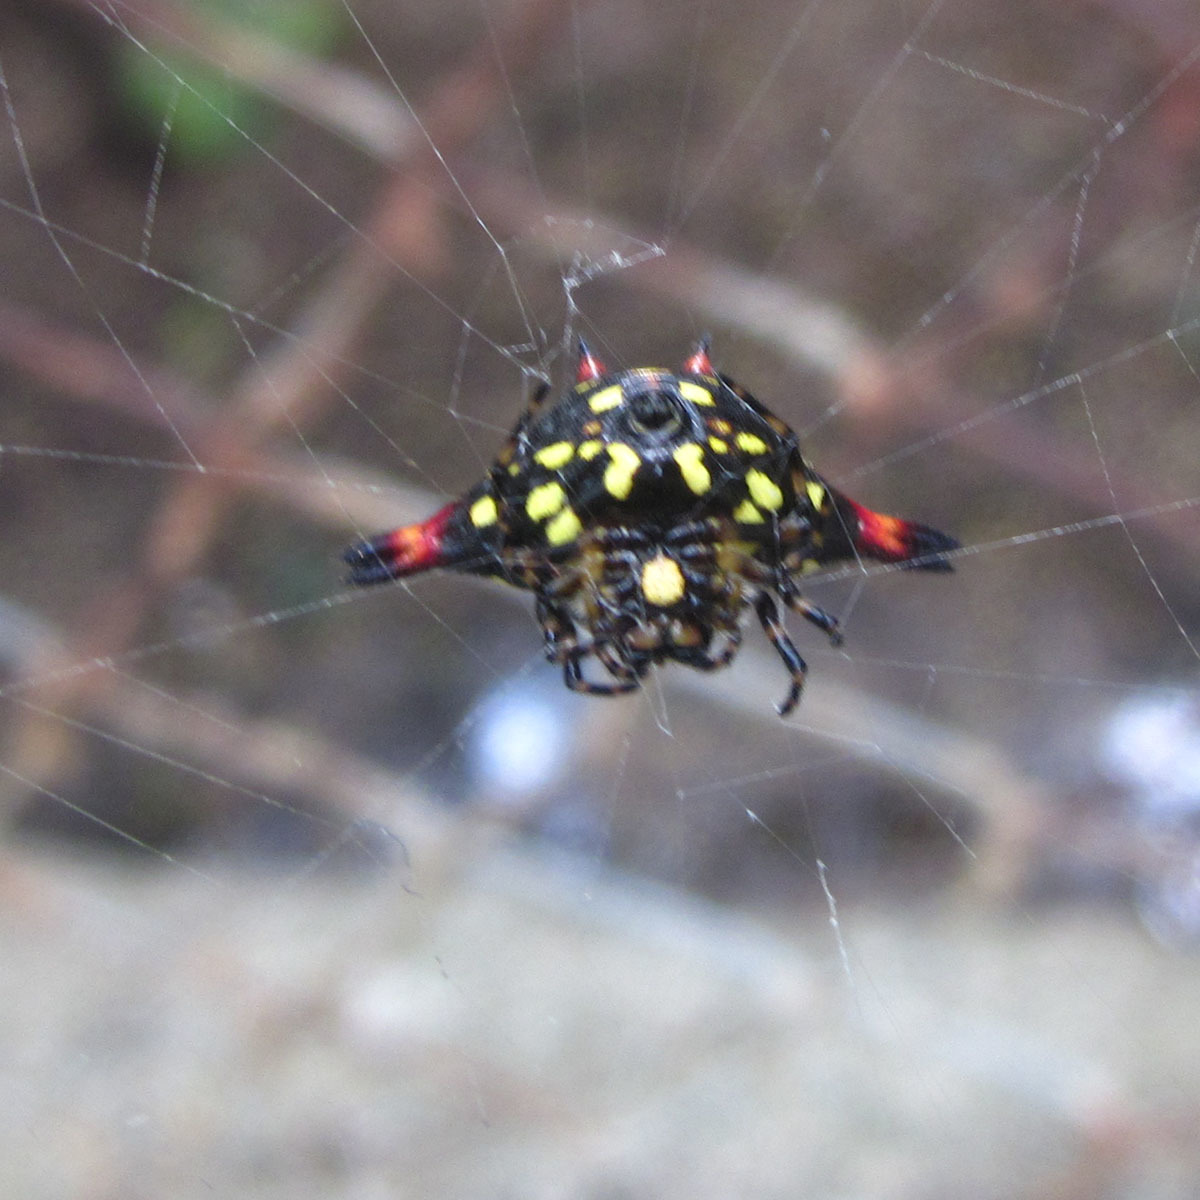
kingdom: Animalia
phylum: Arthropoda
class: Arachnida
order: Araneae
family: Araneidae
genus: Gasteracantha
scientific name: Gasteracantha geminata
